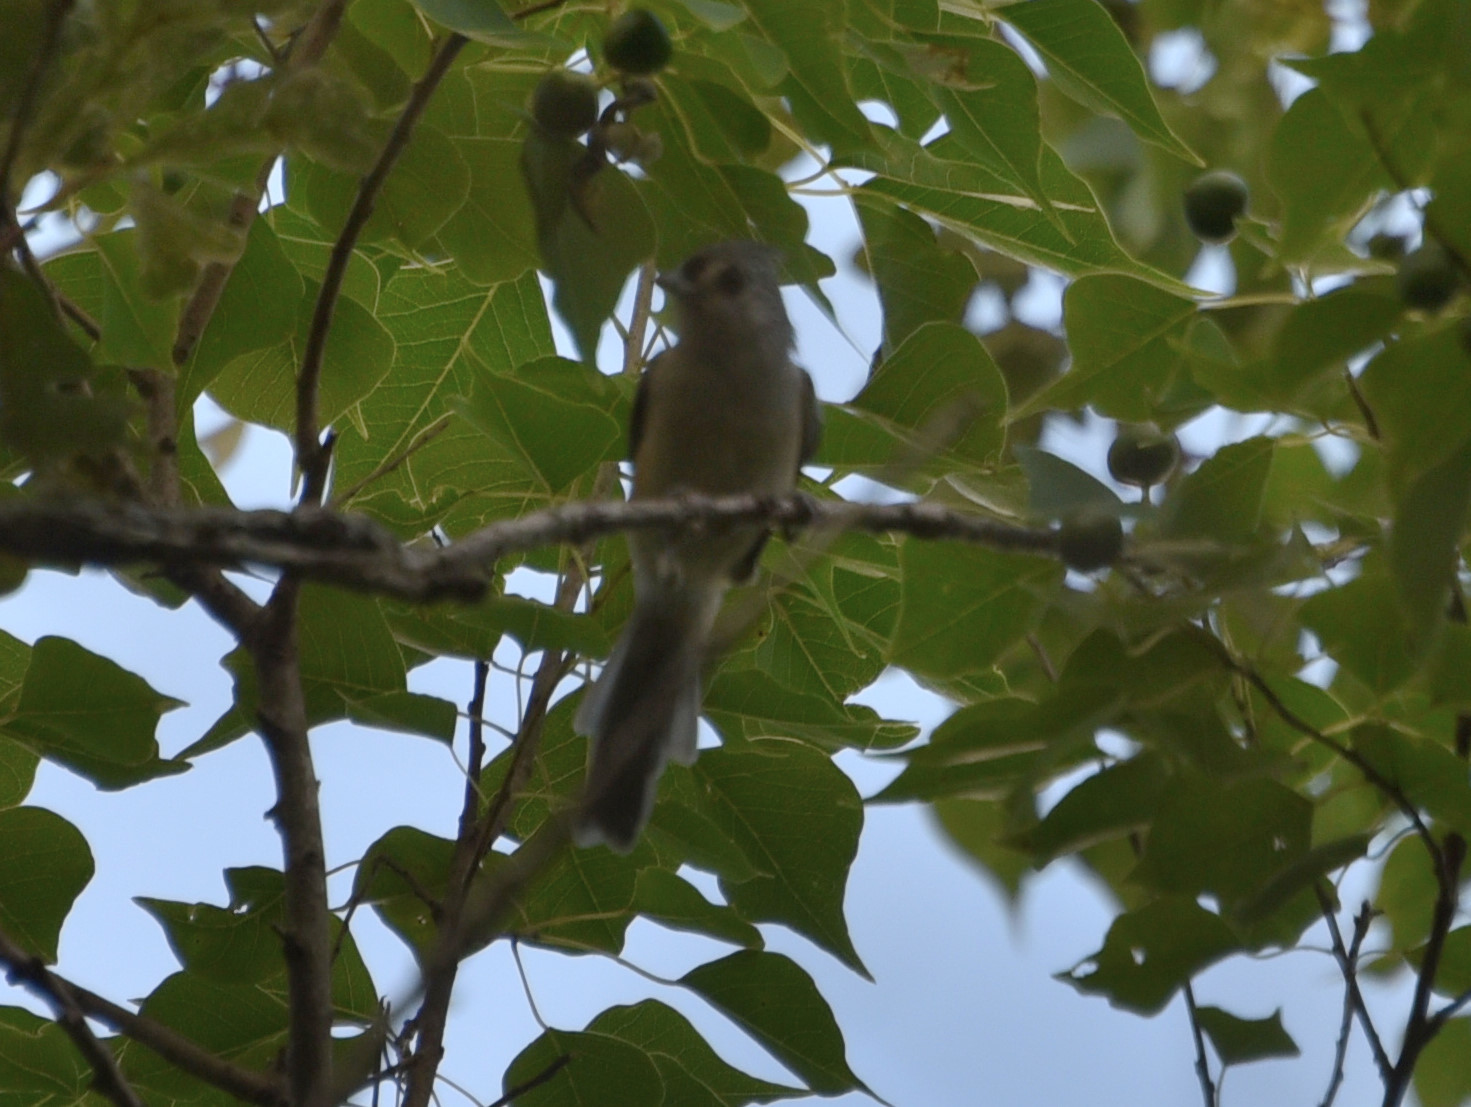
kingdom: Animalia
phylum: Chordata
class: Aves
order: Passeriformes
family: Paridae
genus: Baeolophus
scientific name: Baeolophus bicolor
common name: Tufted titmouse
